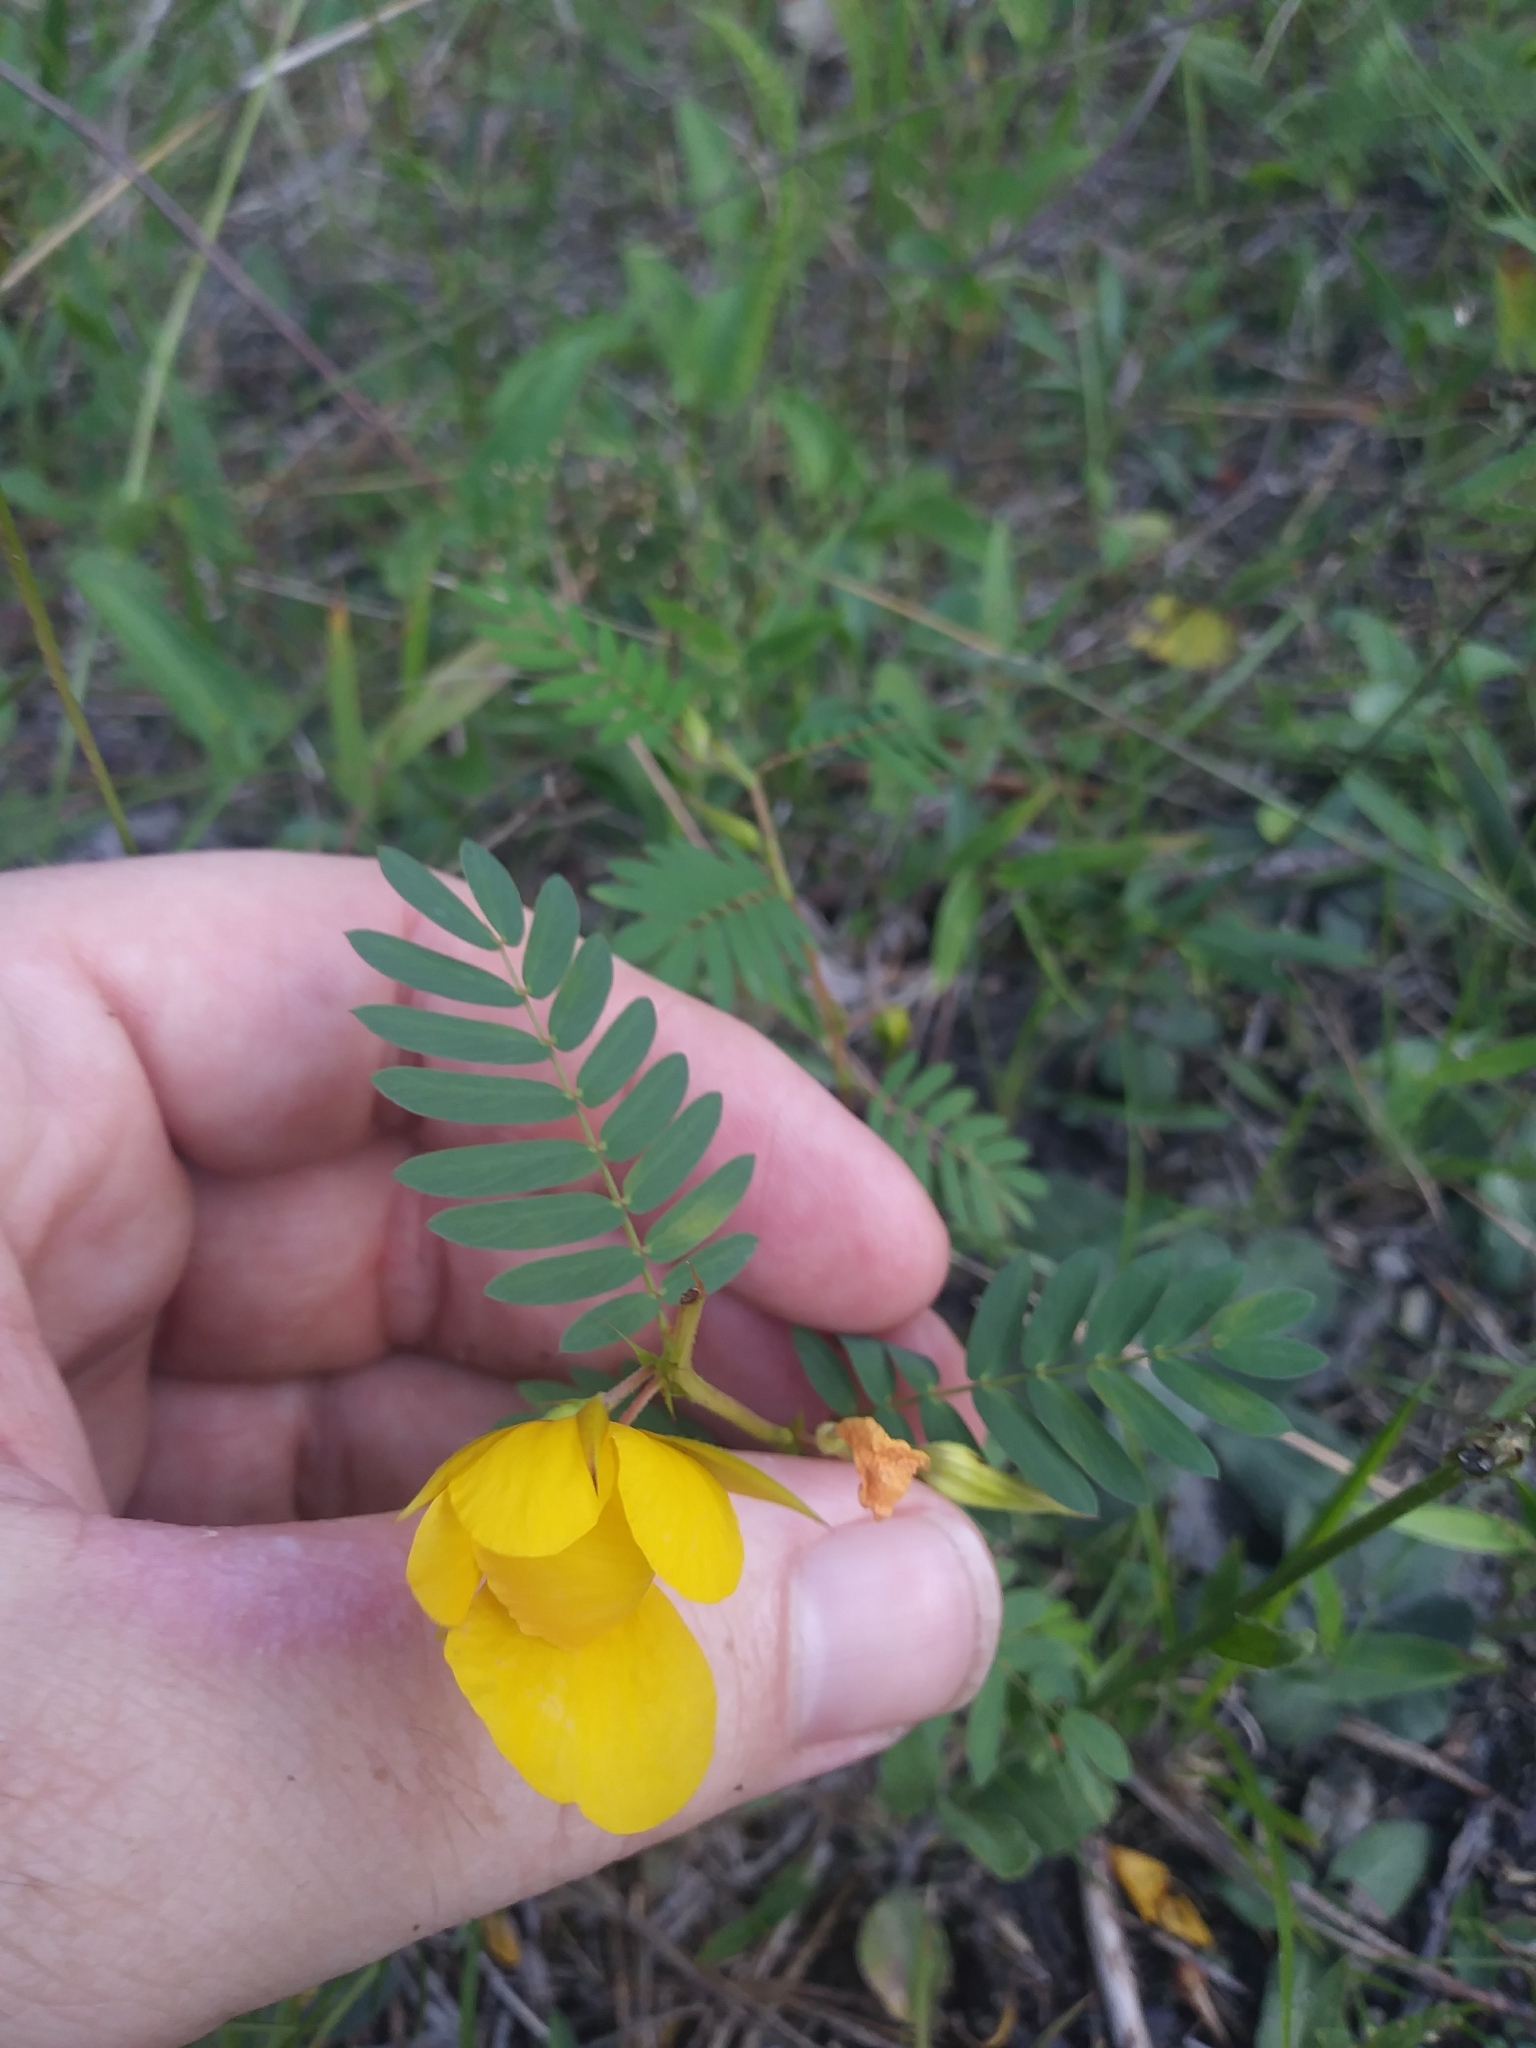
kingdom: Plantae
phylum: Tracheophyta
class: Magnoliopsida
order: Fabales
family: Fabaceae
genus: Chamaecrista
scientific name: Chamaecrista fasciculata
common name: Golden cassia
